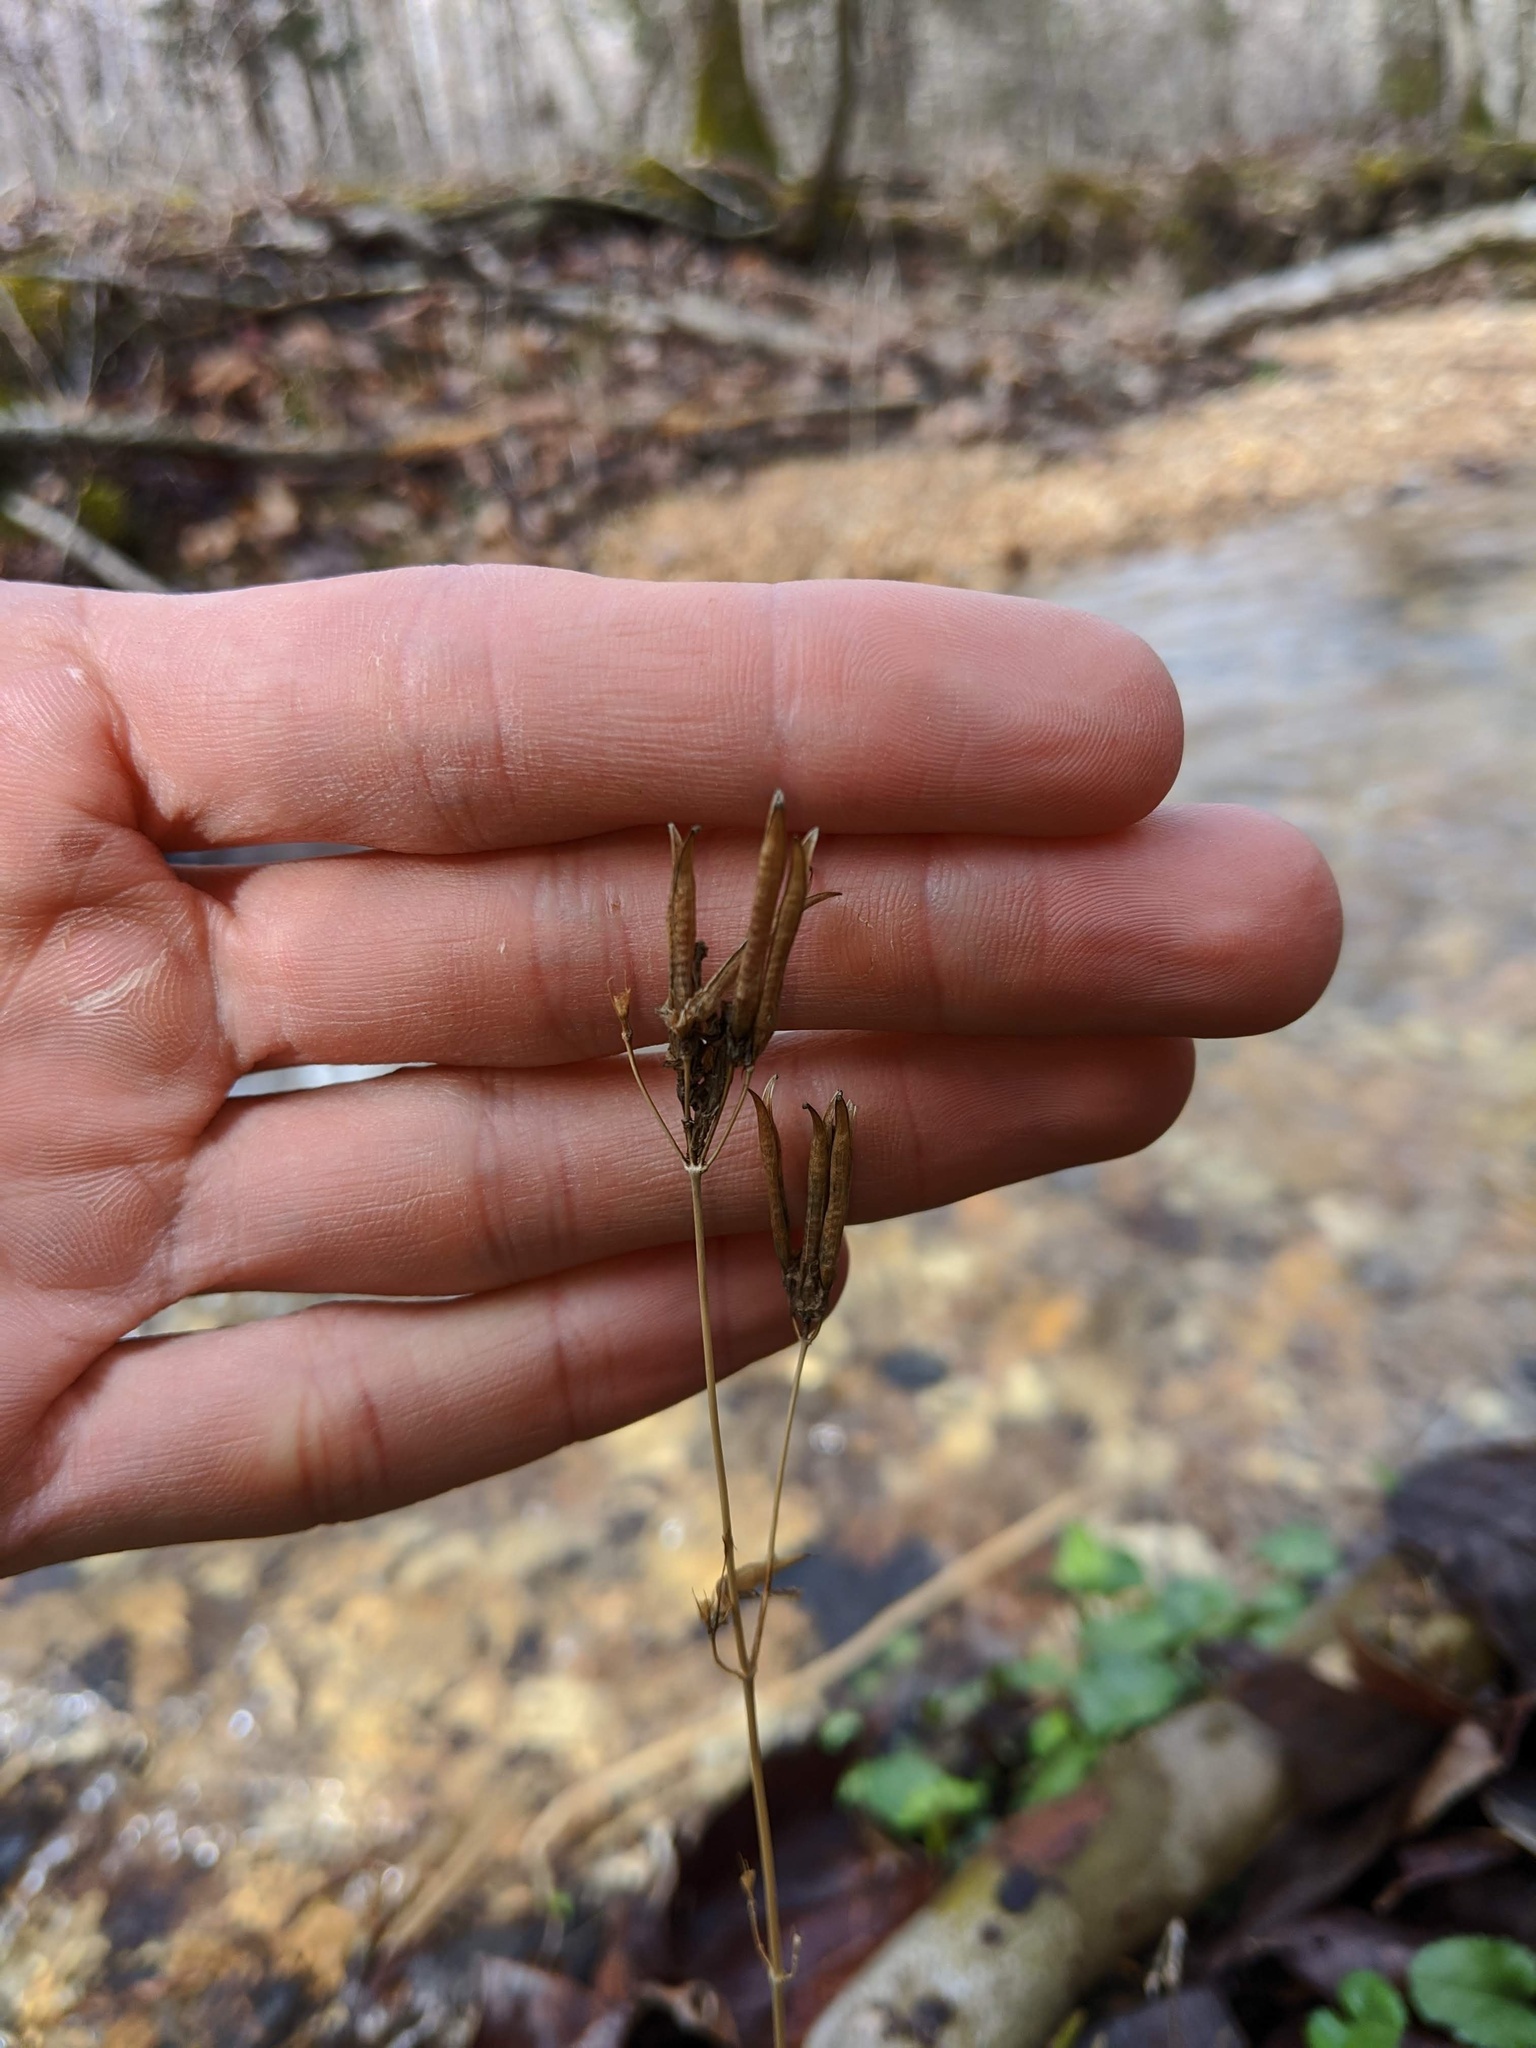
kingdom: Plantae
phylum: Tracheophyta
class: Magnoliopsida
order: Gentianales
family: Gentianaceae
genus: Gentianella
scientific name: Gentianella quinquefolia
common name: Agueweed
